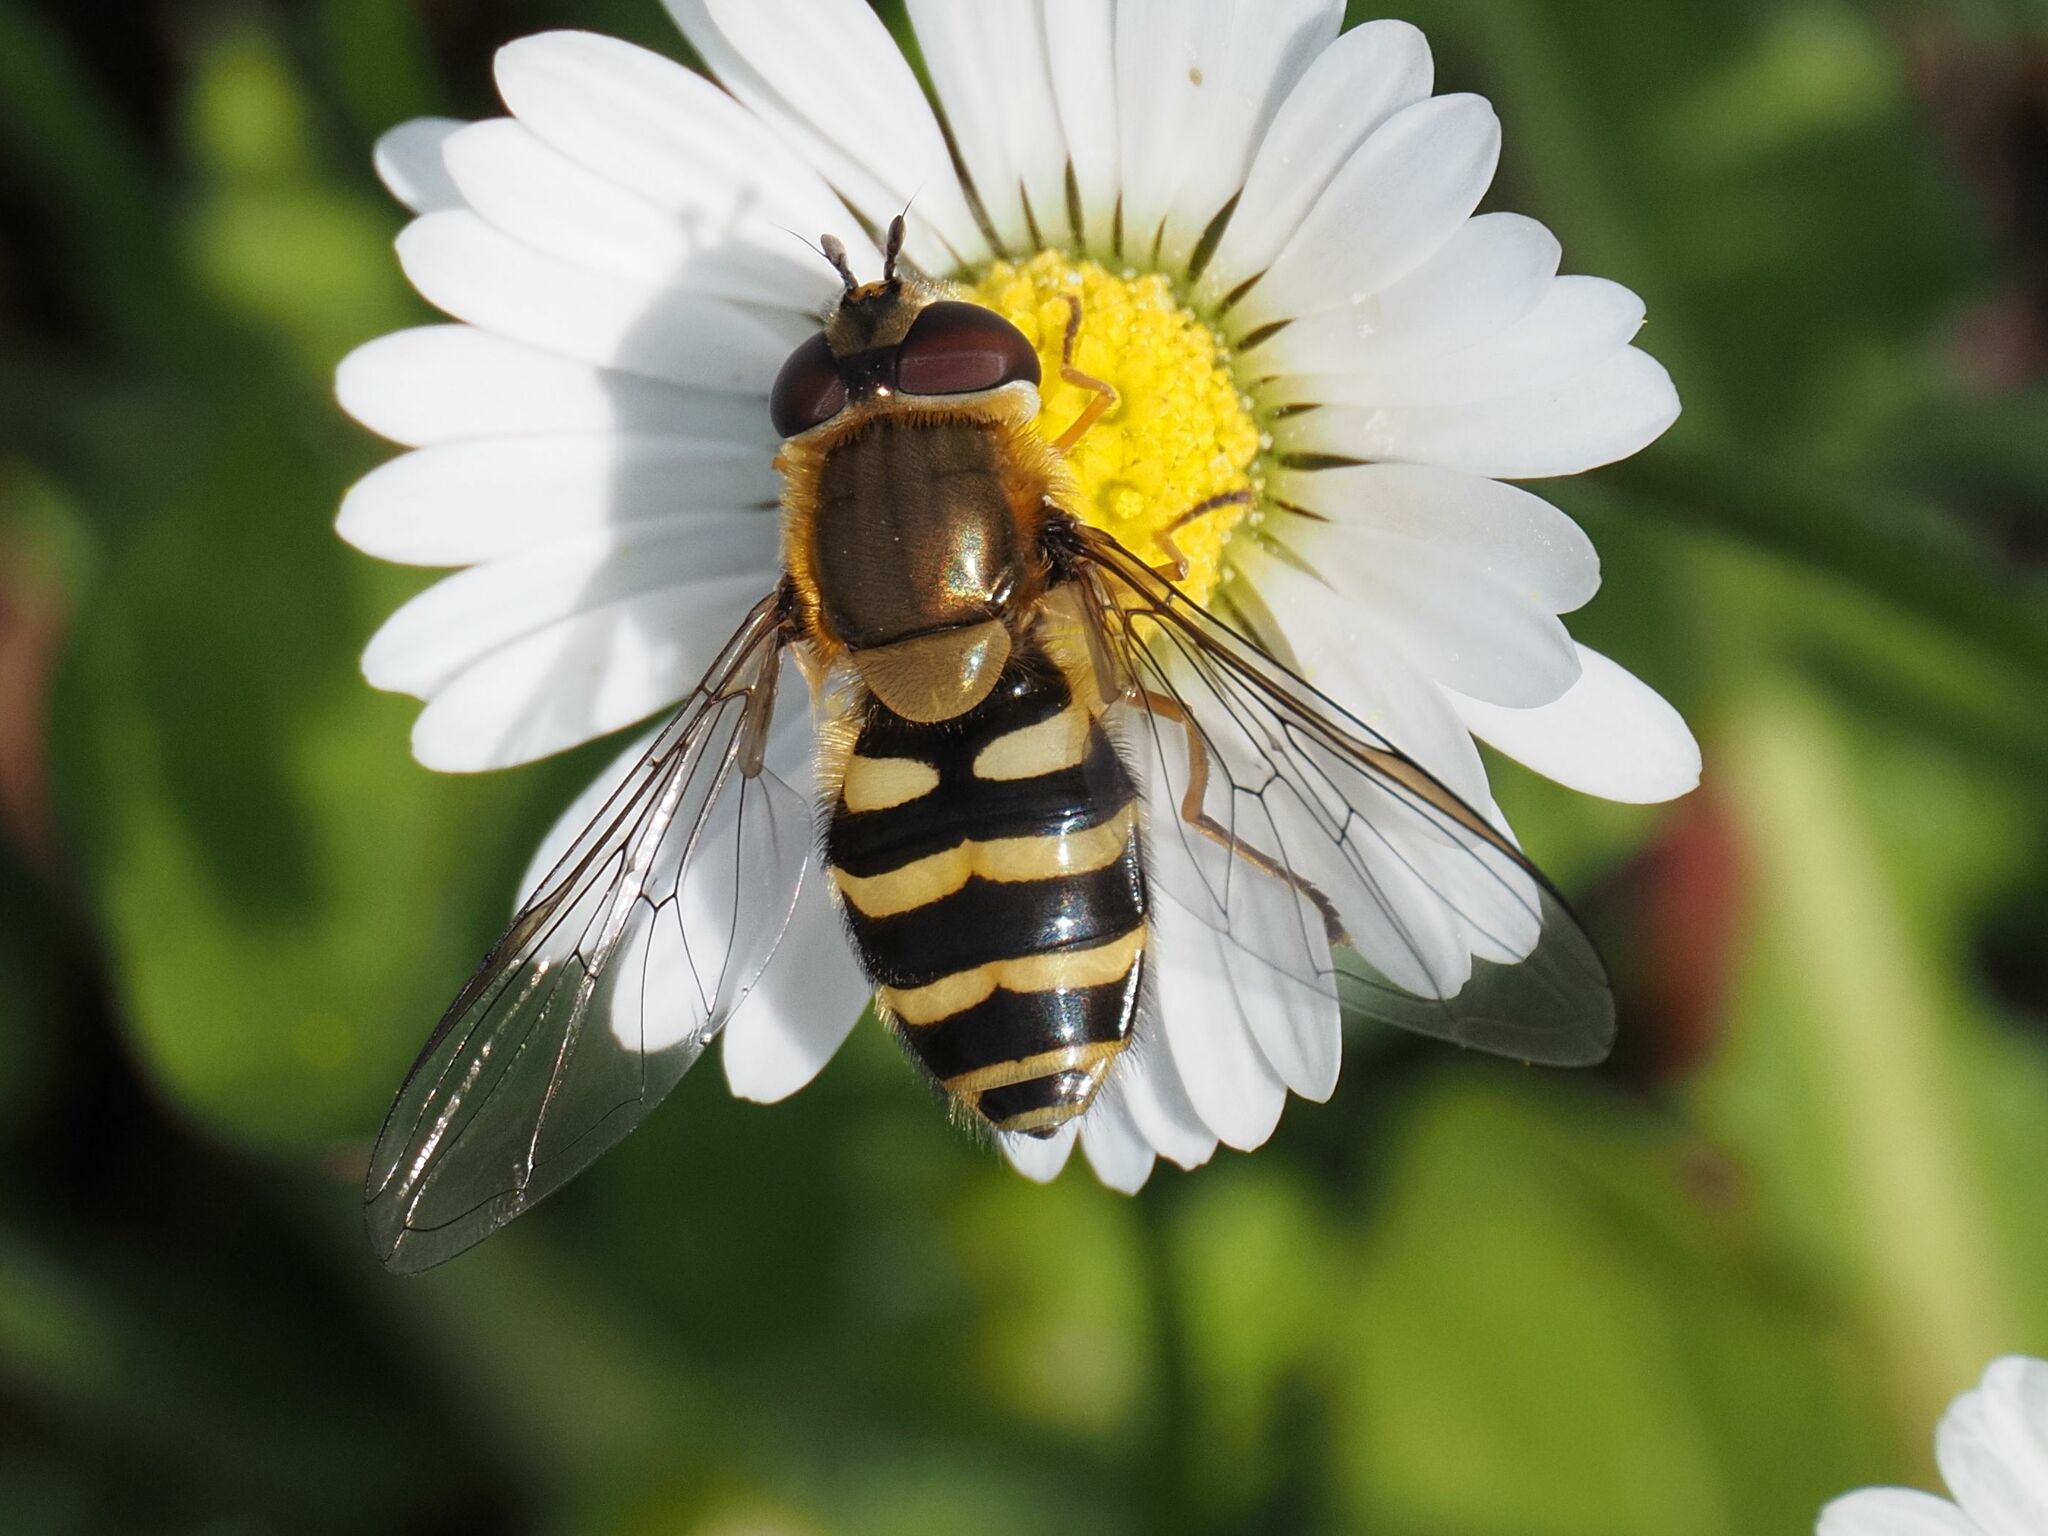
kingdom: Animalia
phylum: Arthropoda
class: Insecta
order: Diptera
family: Syrphidae
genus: Syrphus
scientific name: Syrphus ribesii
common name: Common flower fly
